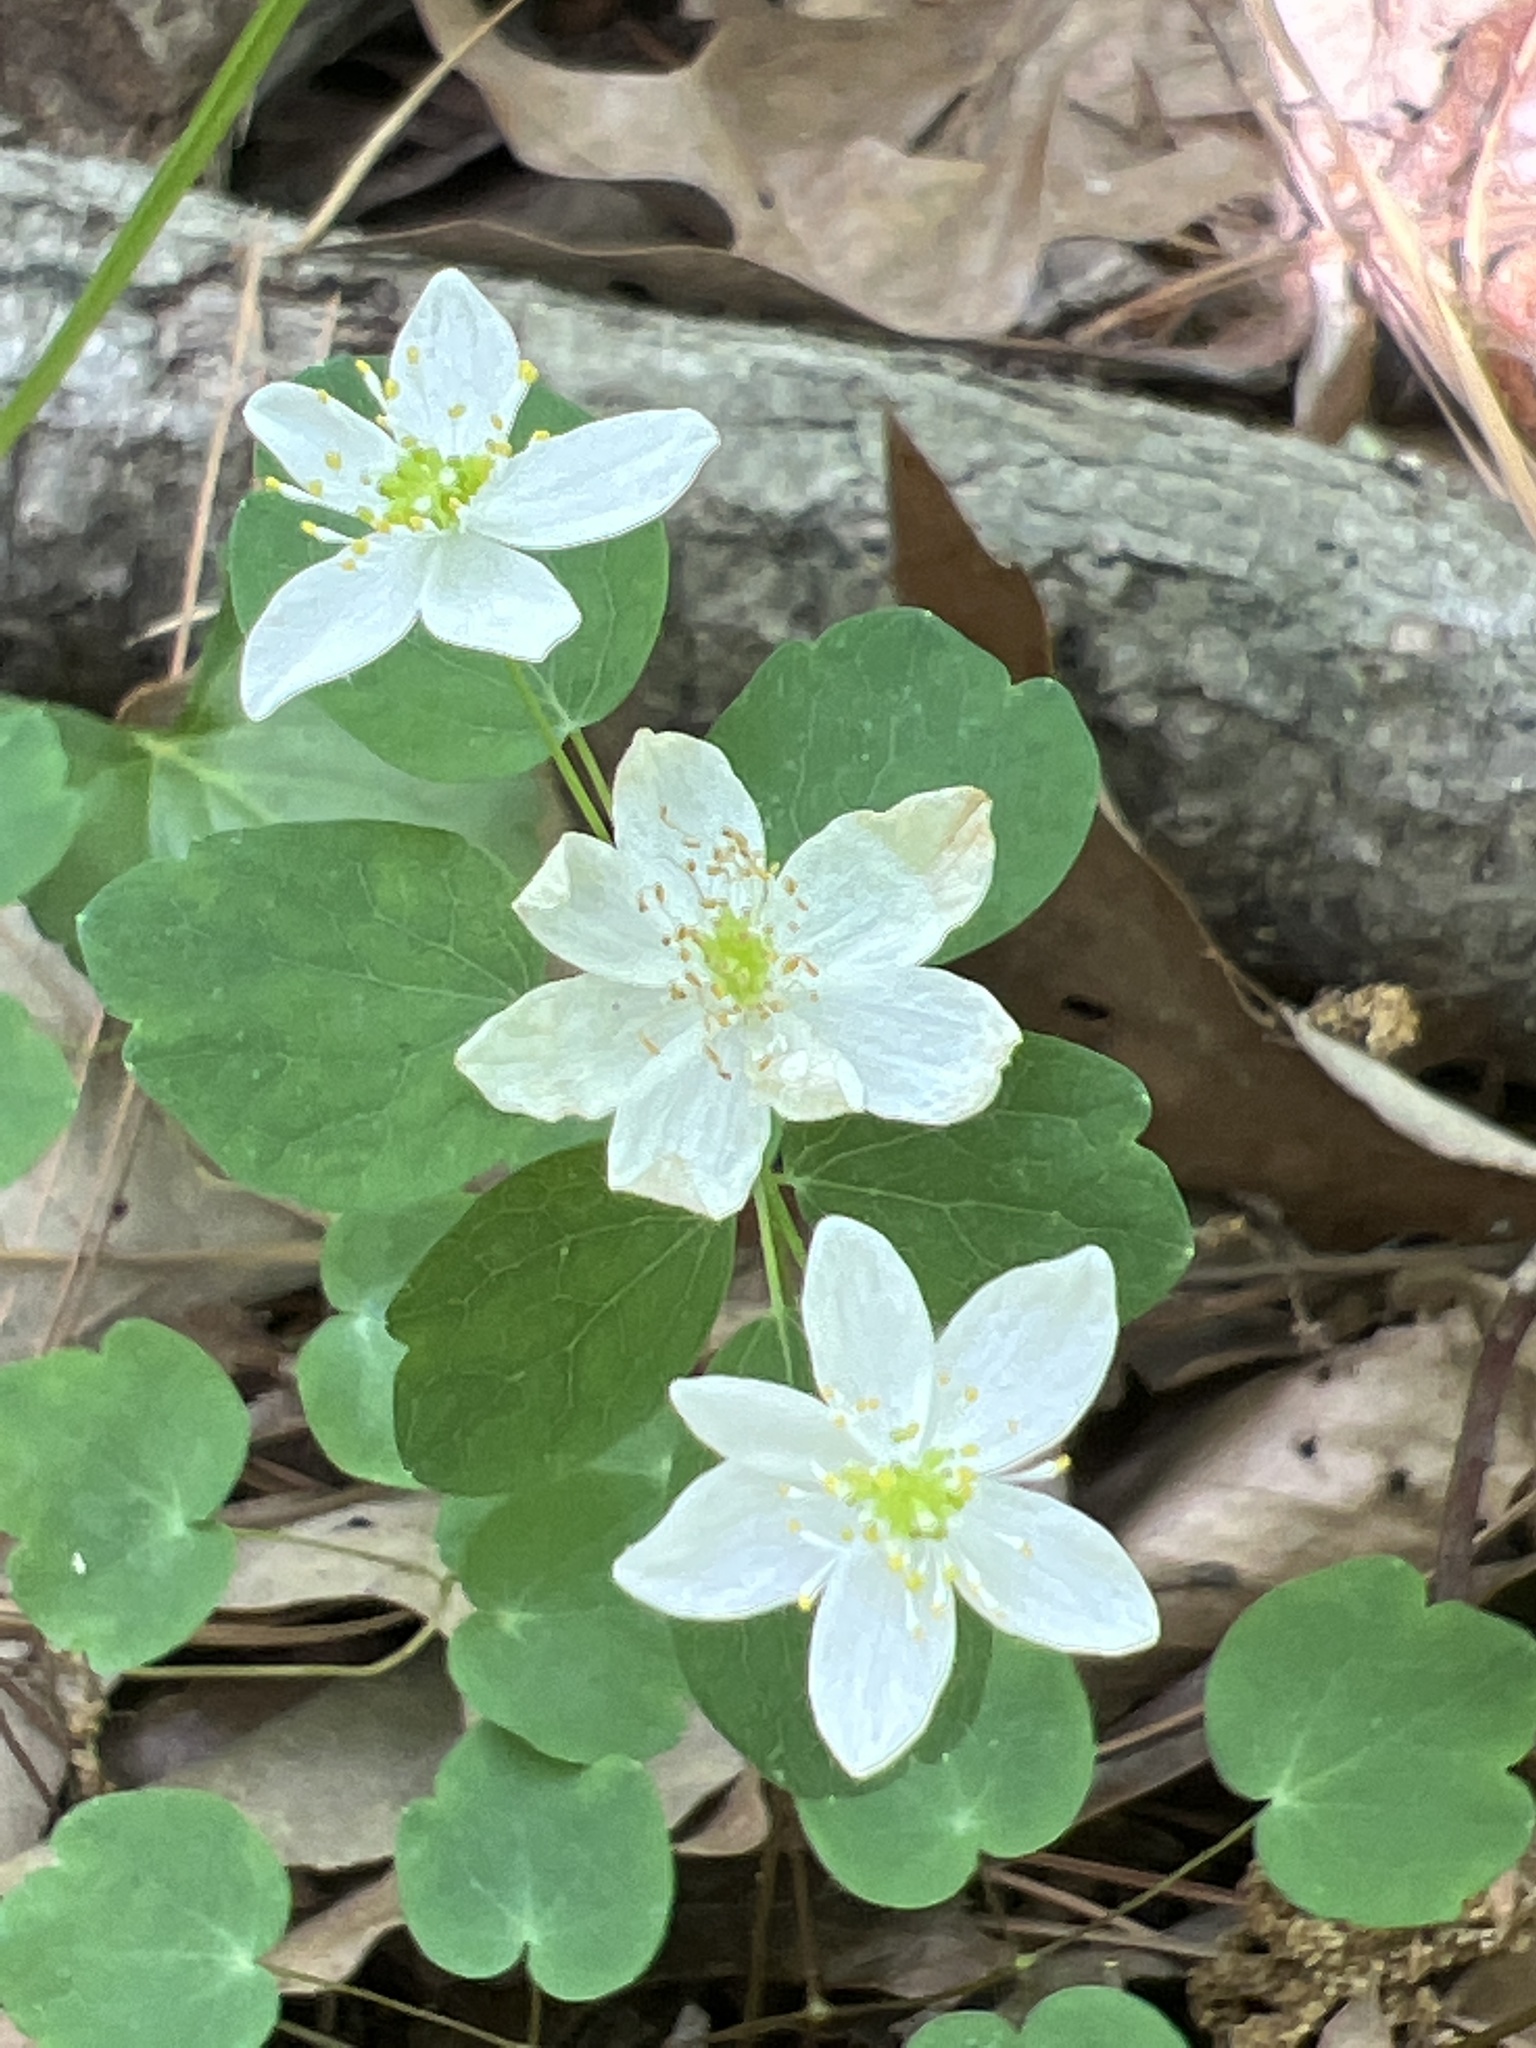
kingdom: Plantae
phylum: Tracheophyta
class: Magnoliopsida
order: Ranunculales
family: Ranunculaceae
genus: Thalictrum
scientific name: Thalictrum thalictroides
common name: Rue-anemone
